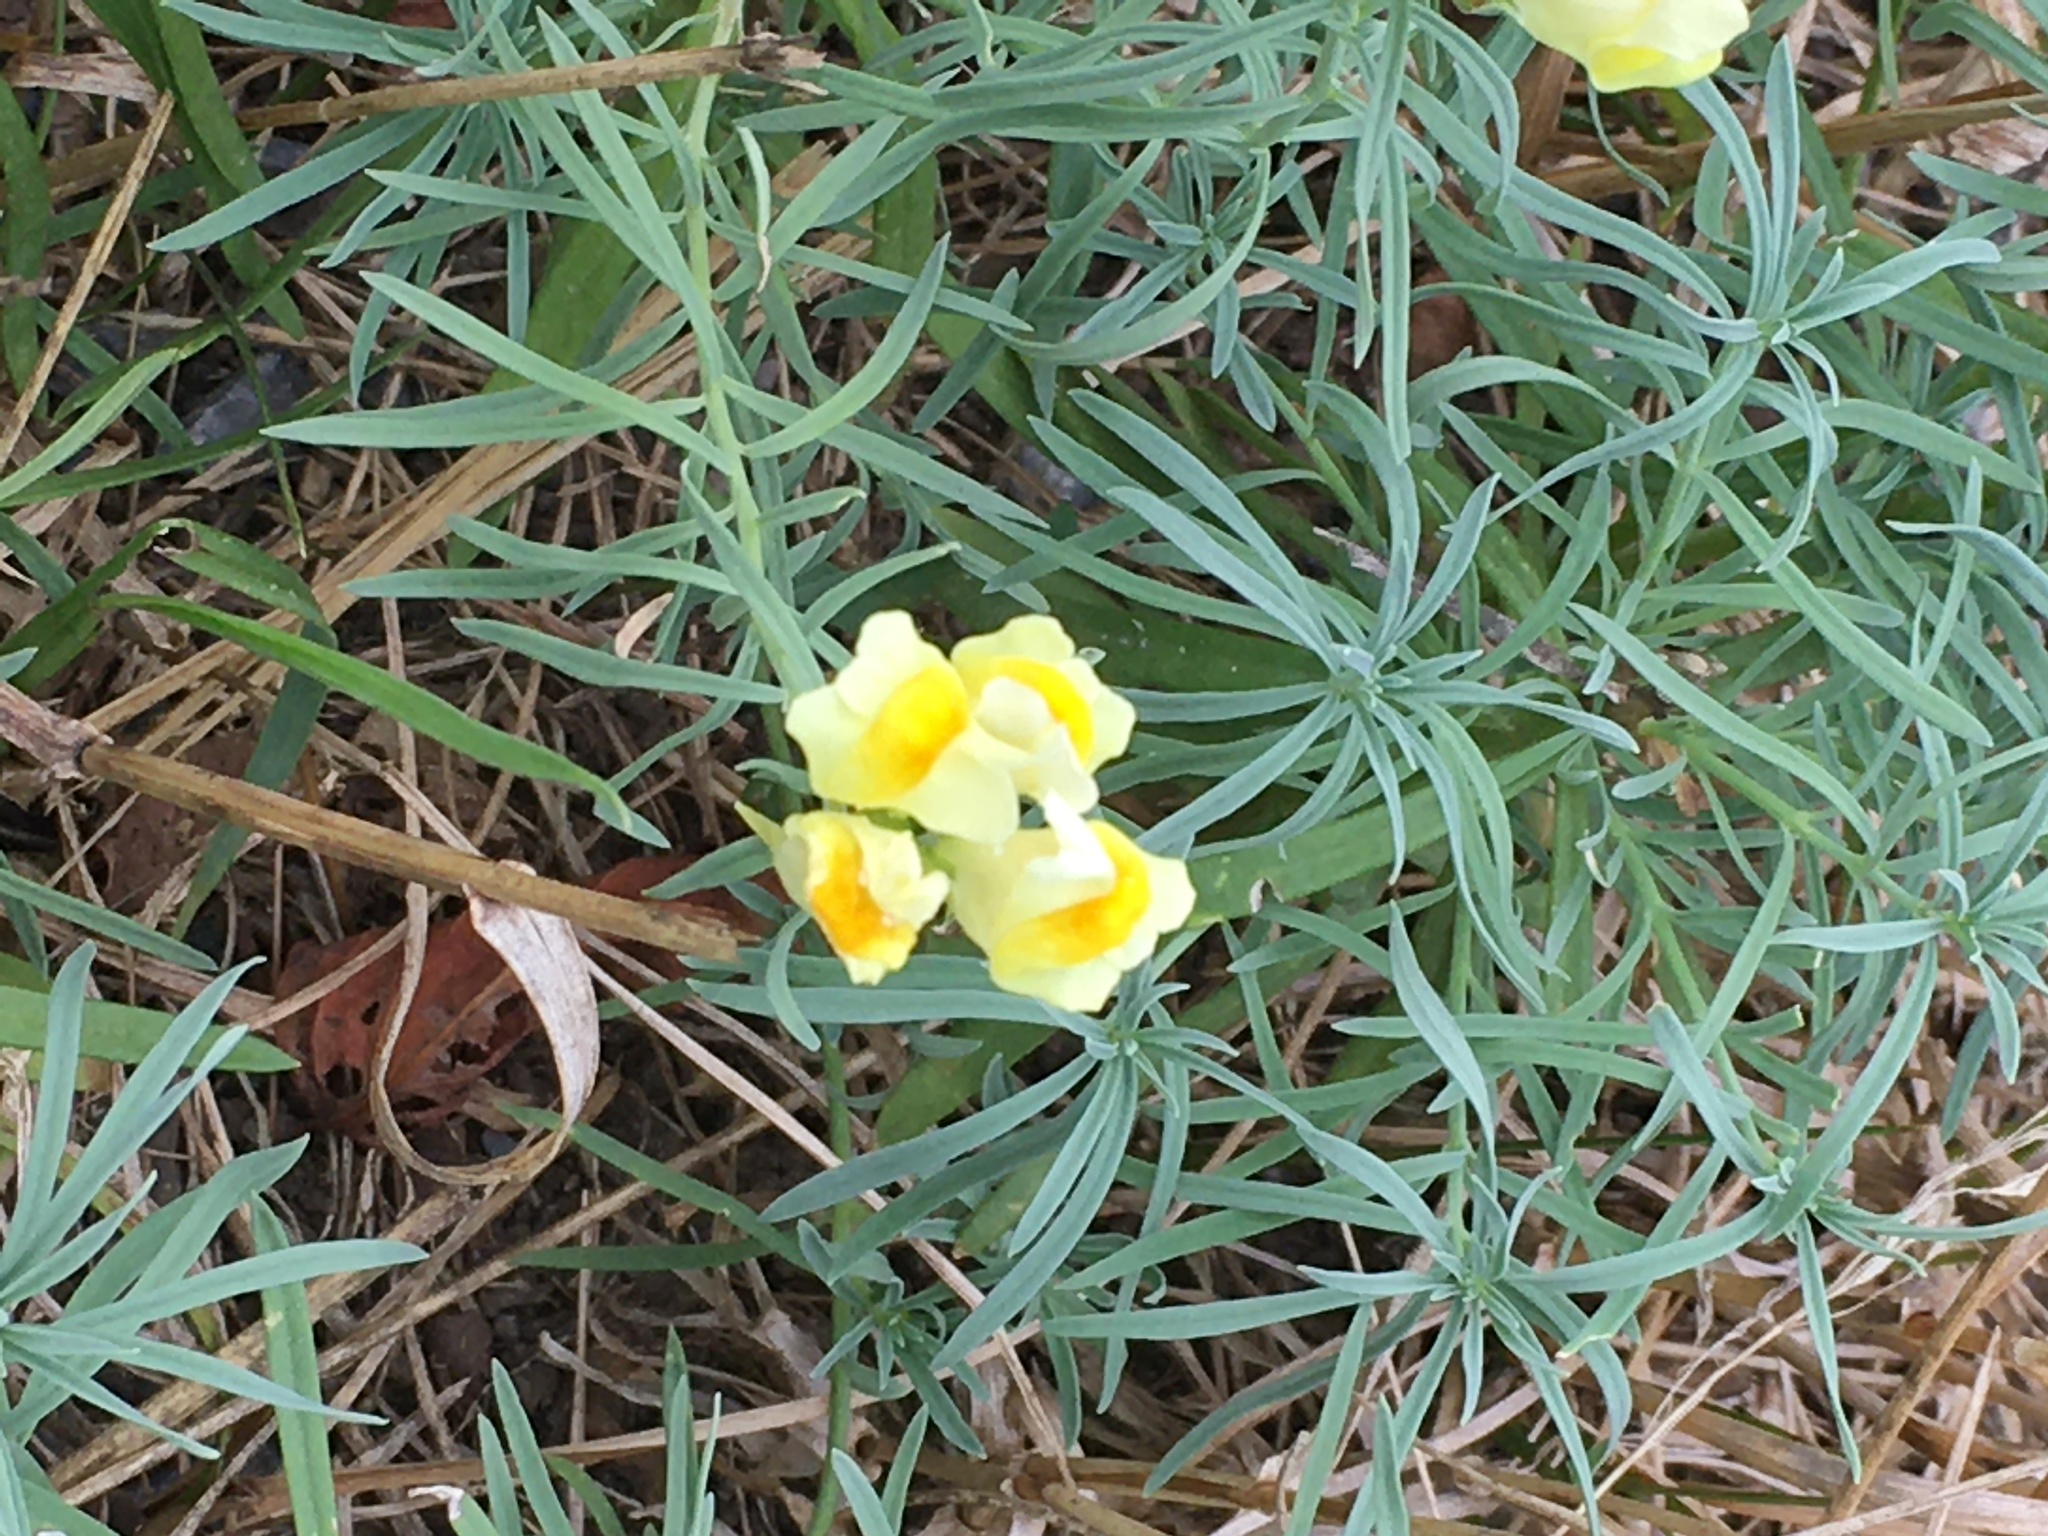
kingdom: Plantae
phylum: Tracheophyta
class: Magnoliopsida
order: Lamiales
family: Plantaginaceae
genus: Linaria
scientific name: Linaria vulgaris
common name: Butter and eggs
